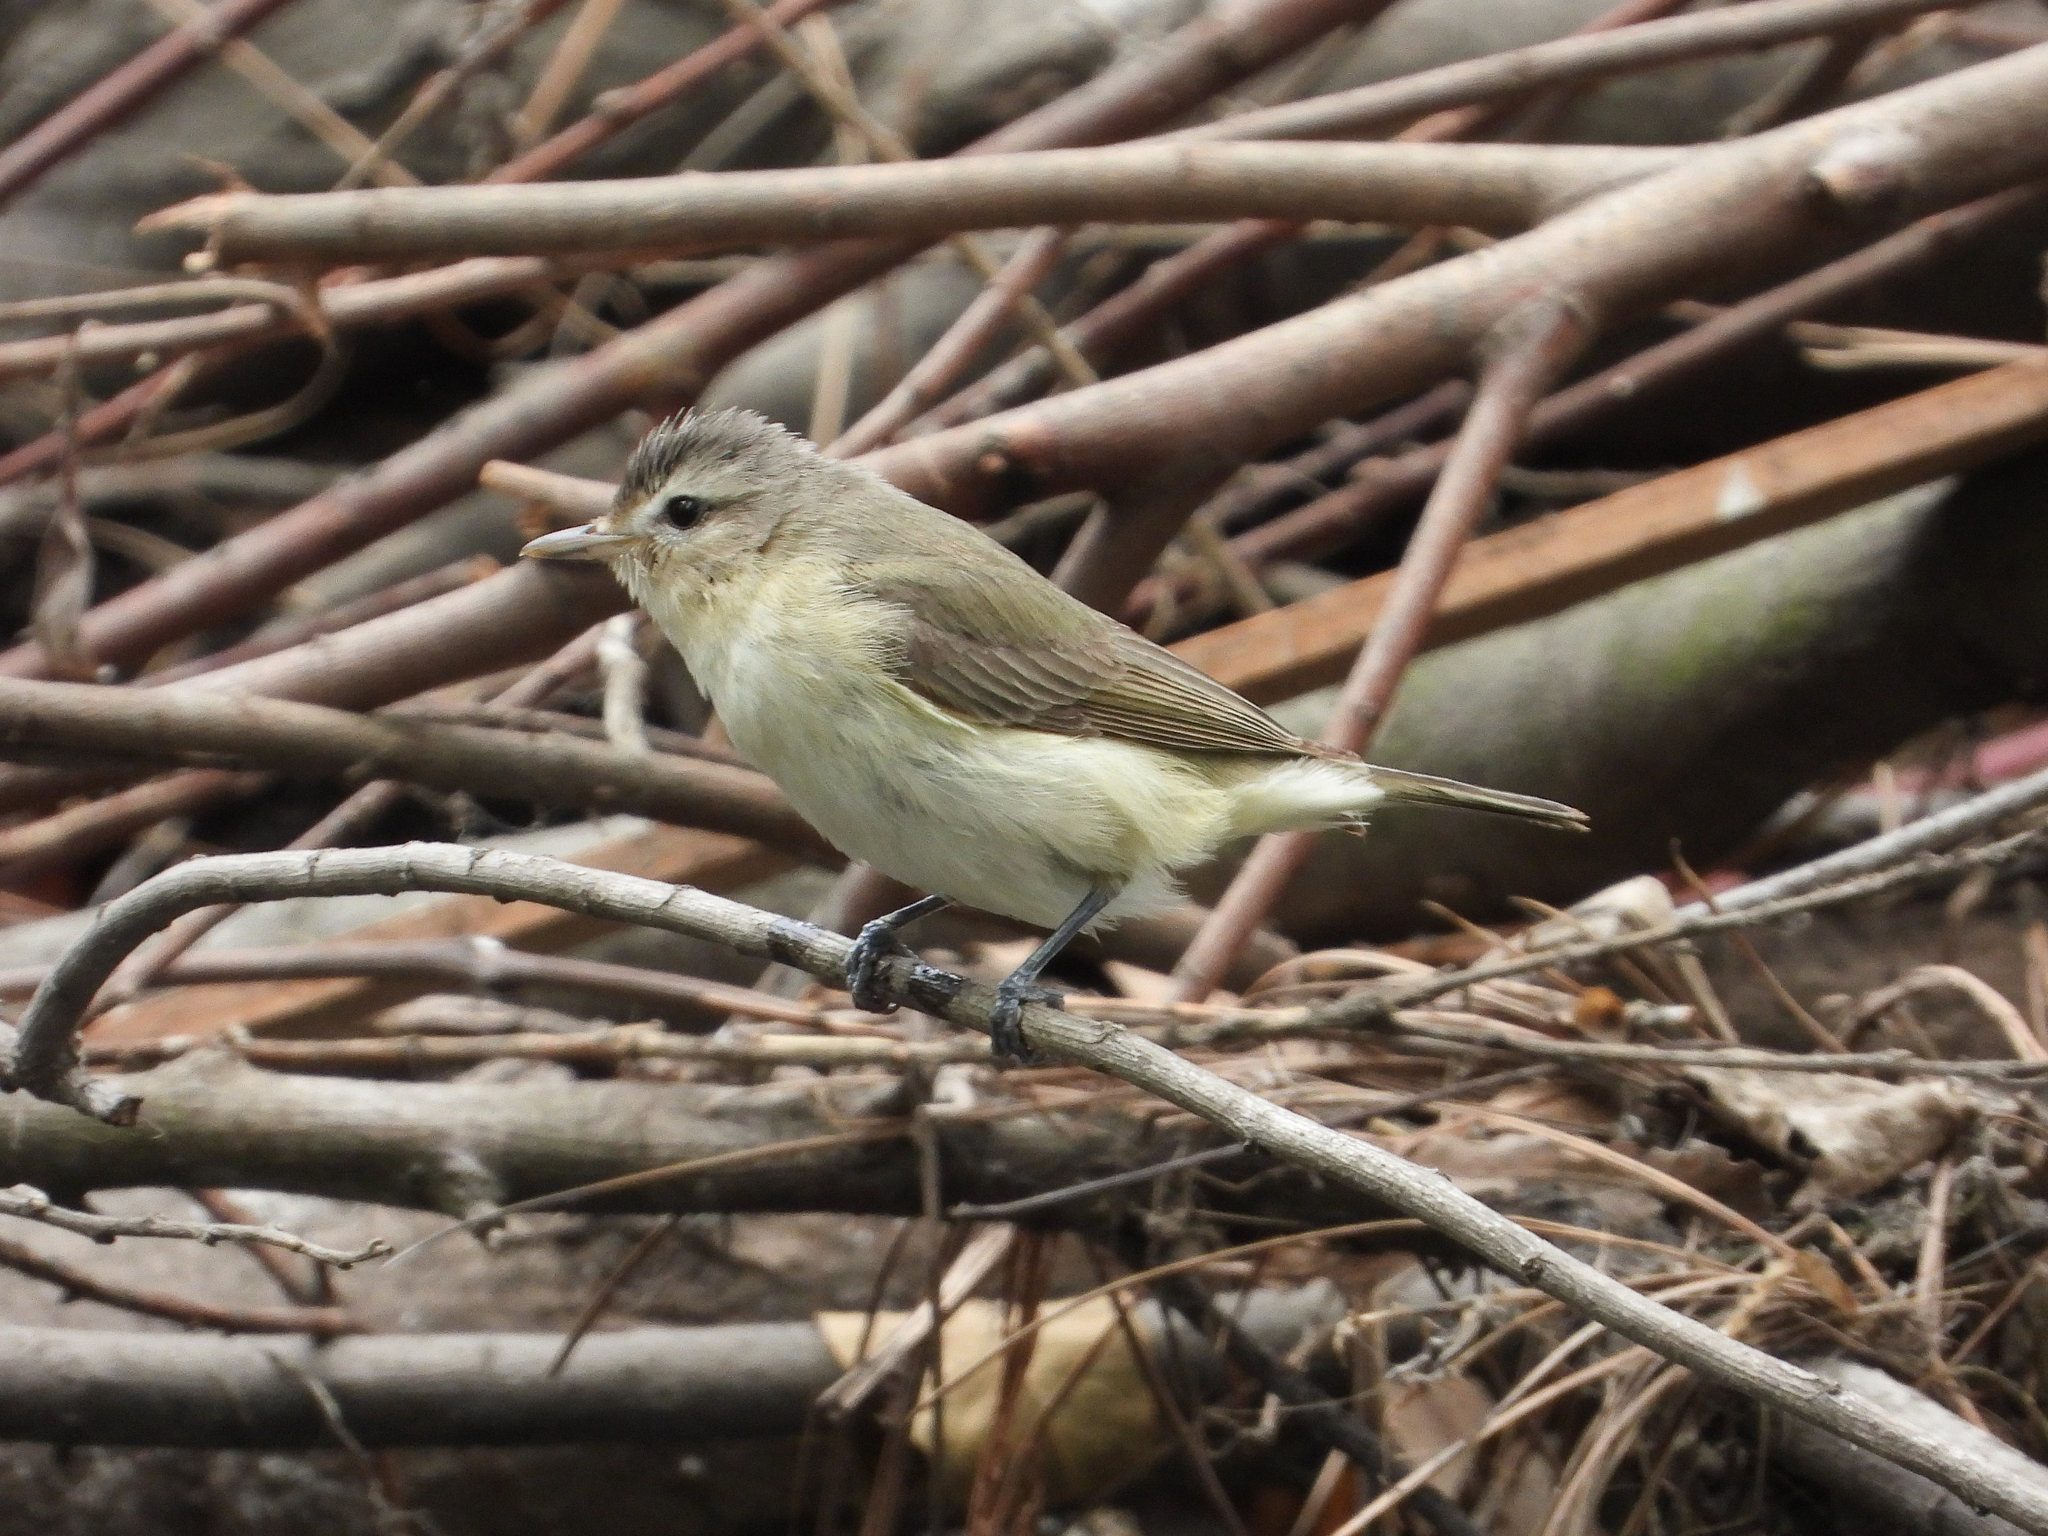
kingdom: Animalia
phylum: Chordata
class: Aves
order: Passeriformes
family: Vireonidae
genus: Vireo
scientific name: Vireo gilvus
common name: Warbling vireo
